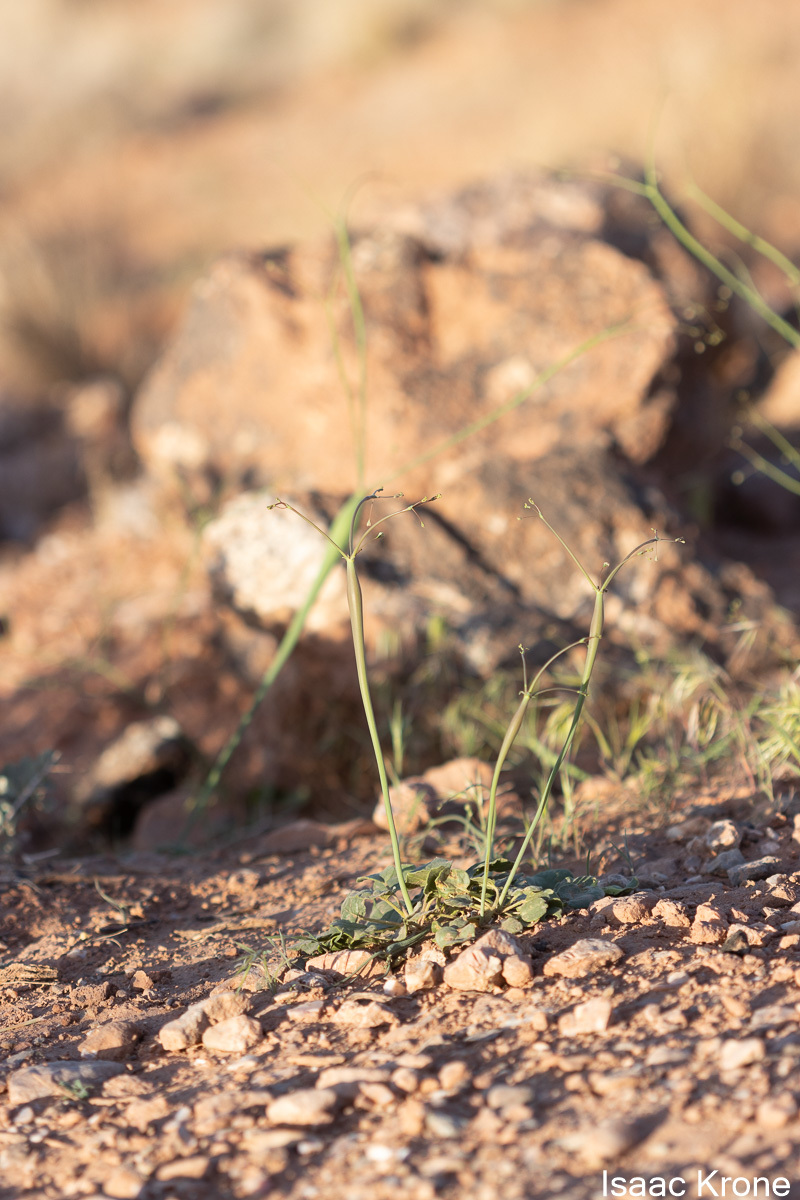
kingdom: Plantae
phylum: Tracheophyta
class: Magnoliopsida
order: Caryophyllales
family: Polygonaceae
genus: Eriogonum
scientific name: Eriogonum inflatum
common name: Desert trumpet
